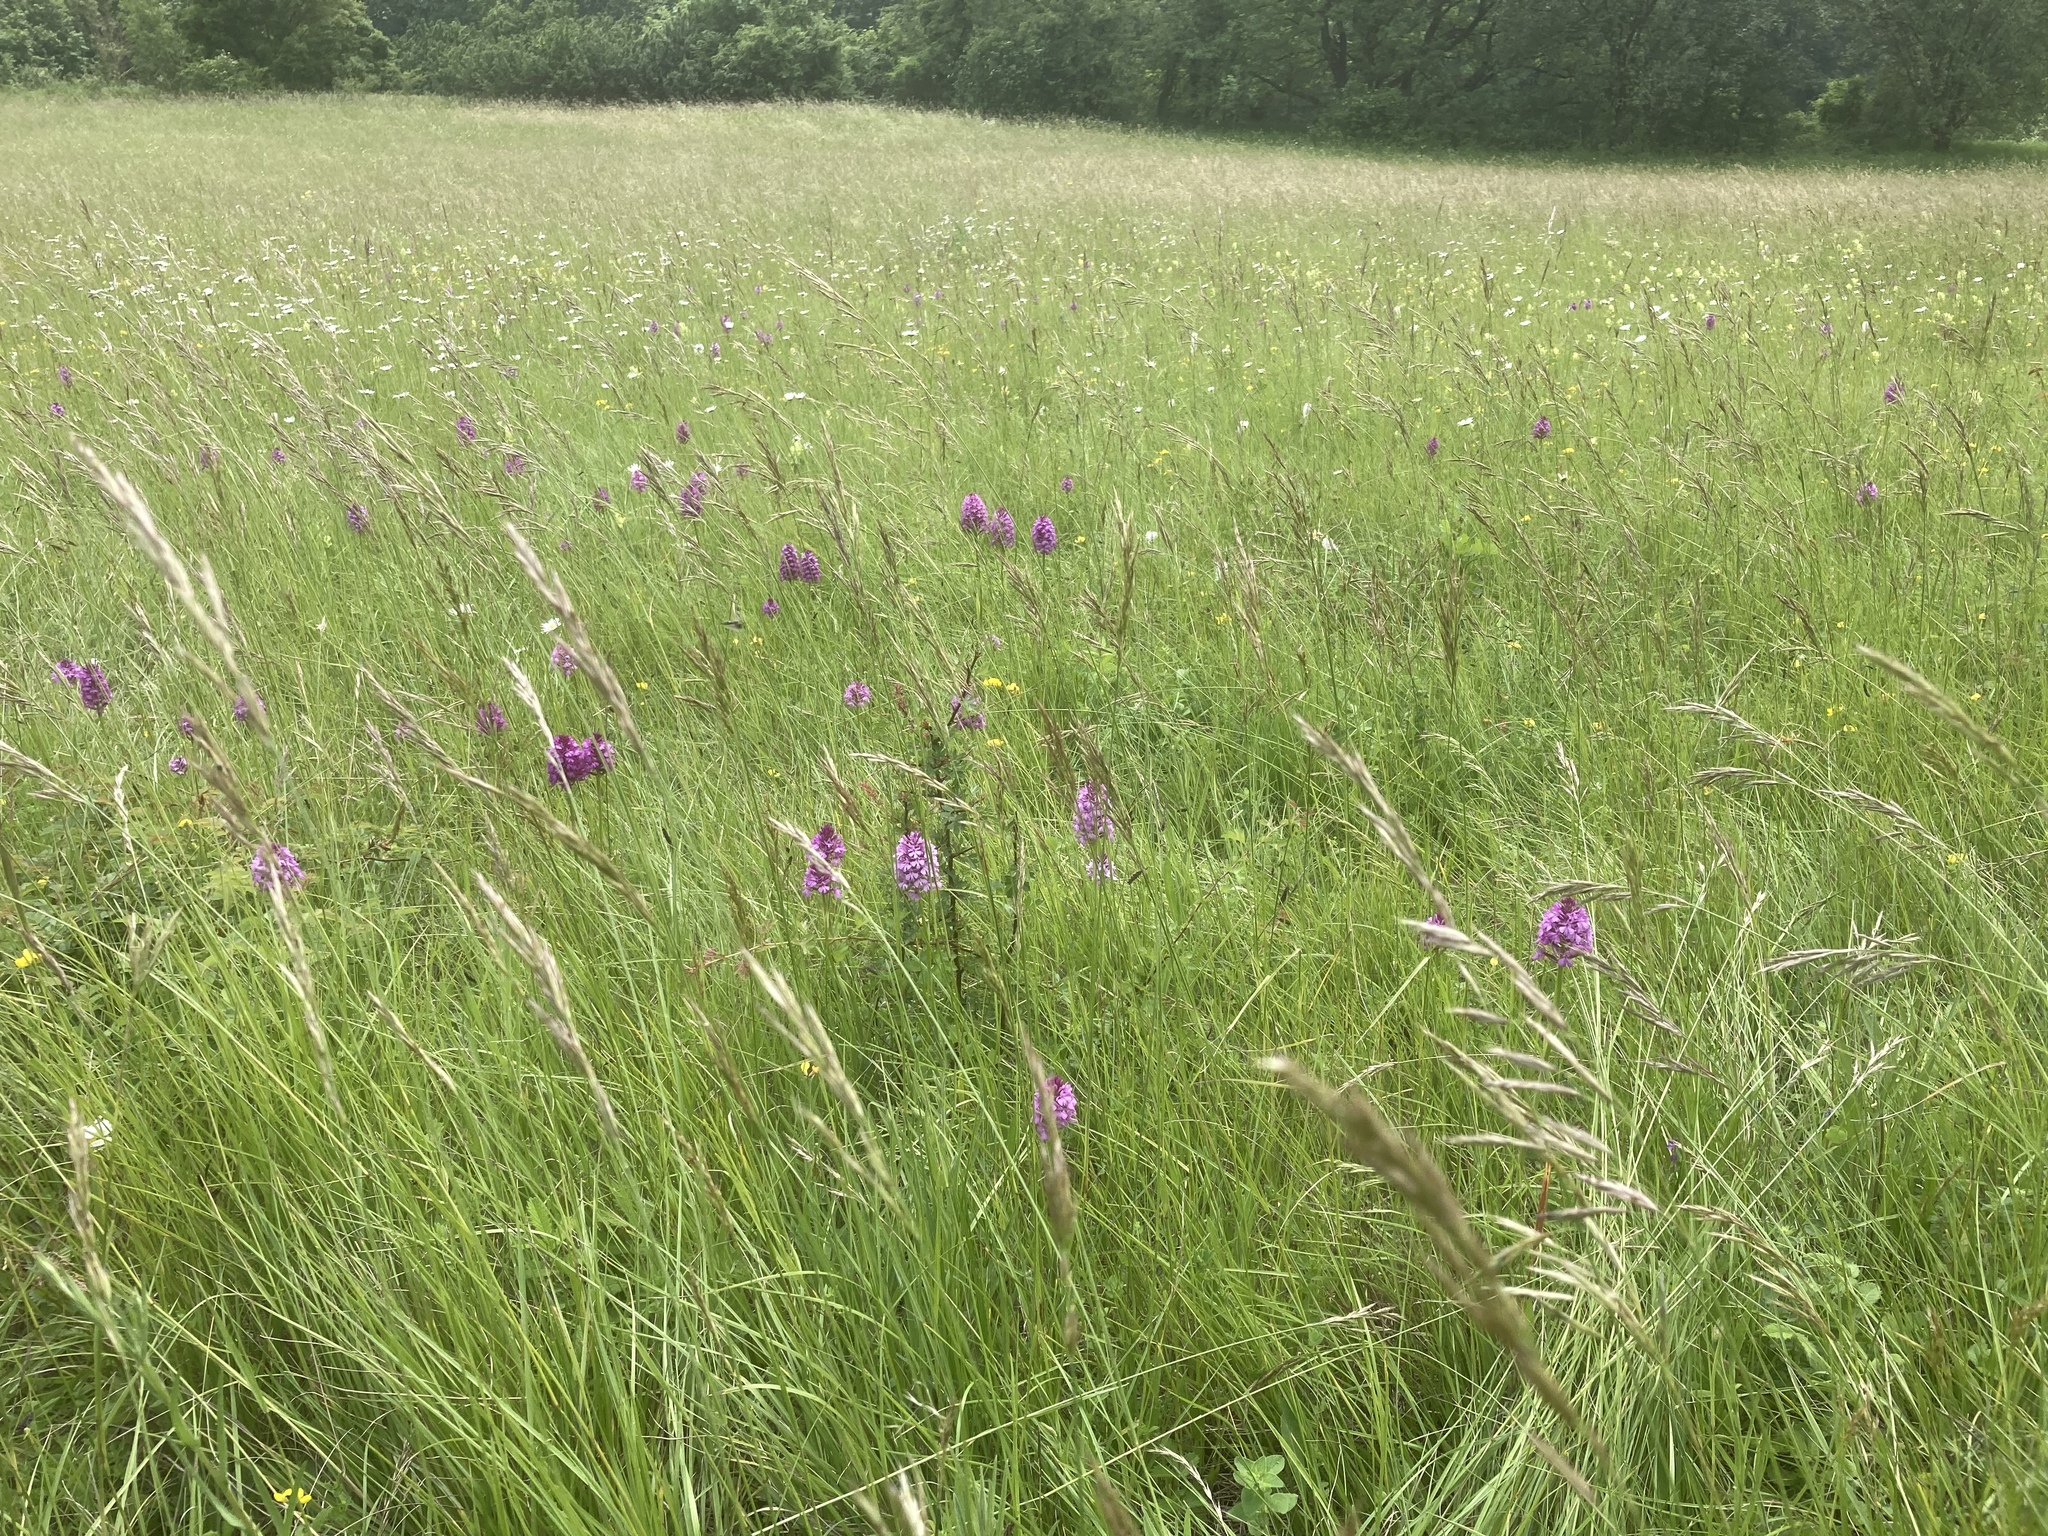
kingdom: Plantae
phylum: Tracheophyta
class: Liliopsida
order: Asparagales
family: Orchidaceae
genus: Anacamptis
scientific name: Anacamptis pyramidalis
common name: Pyramidal orchid
